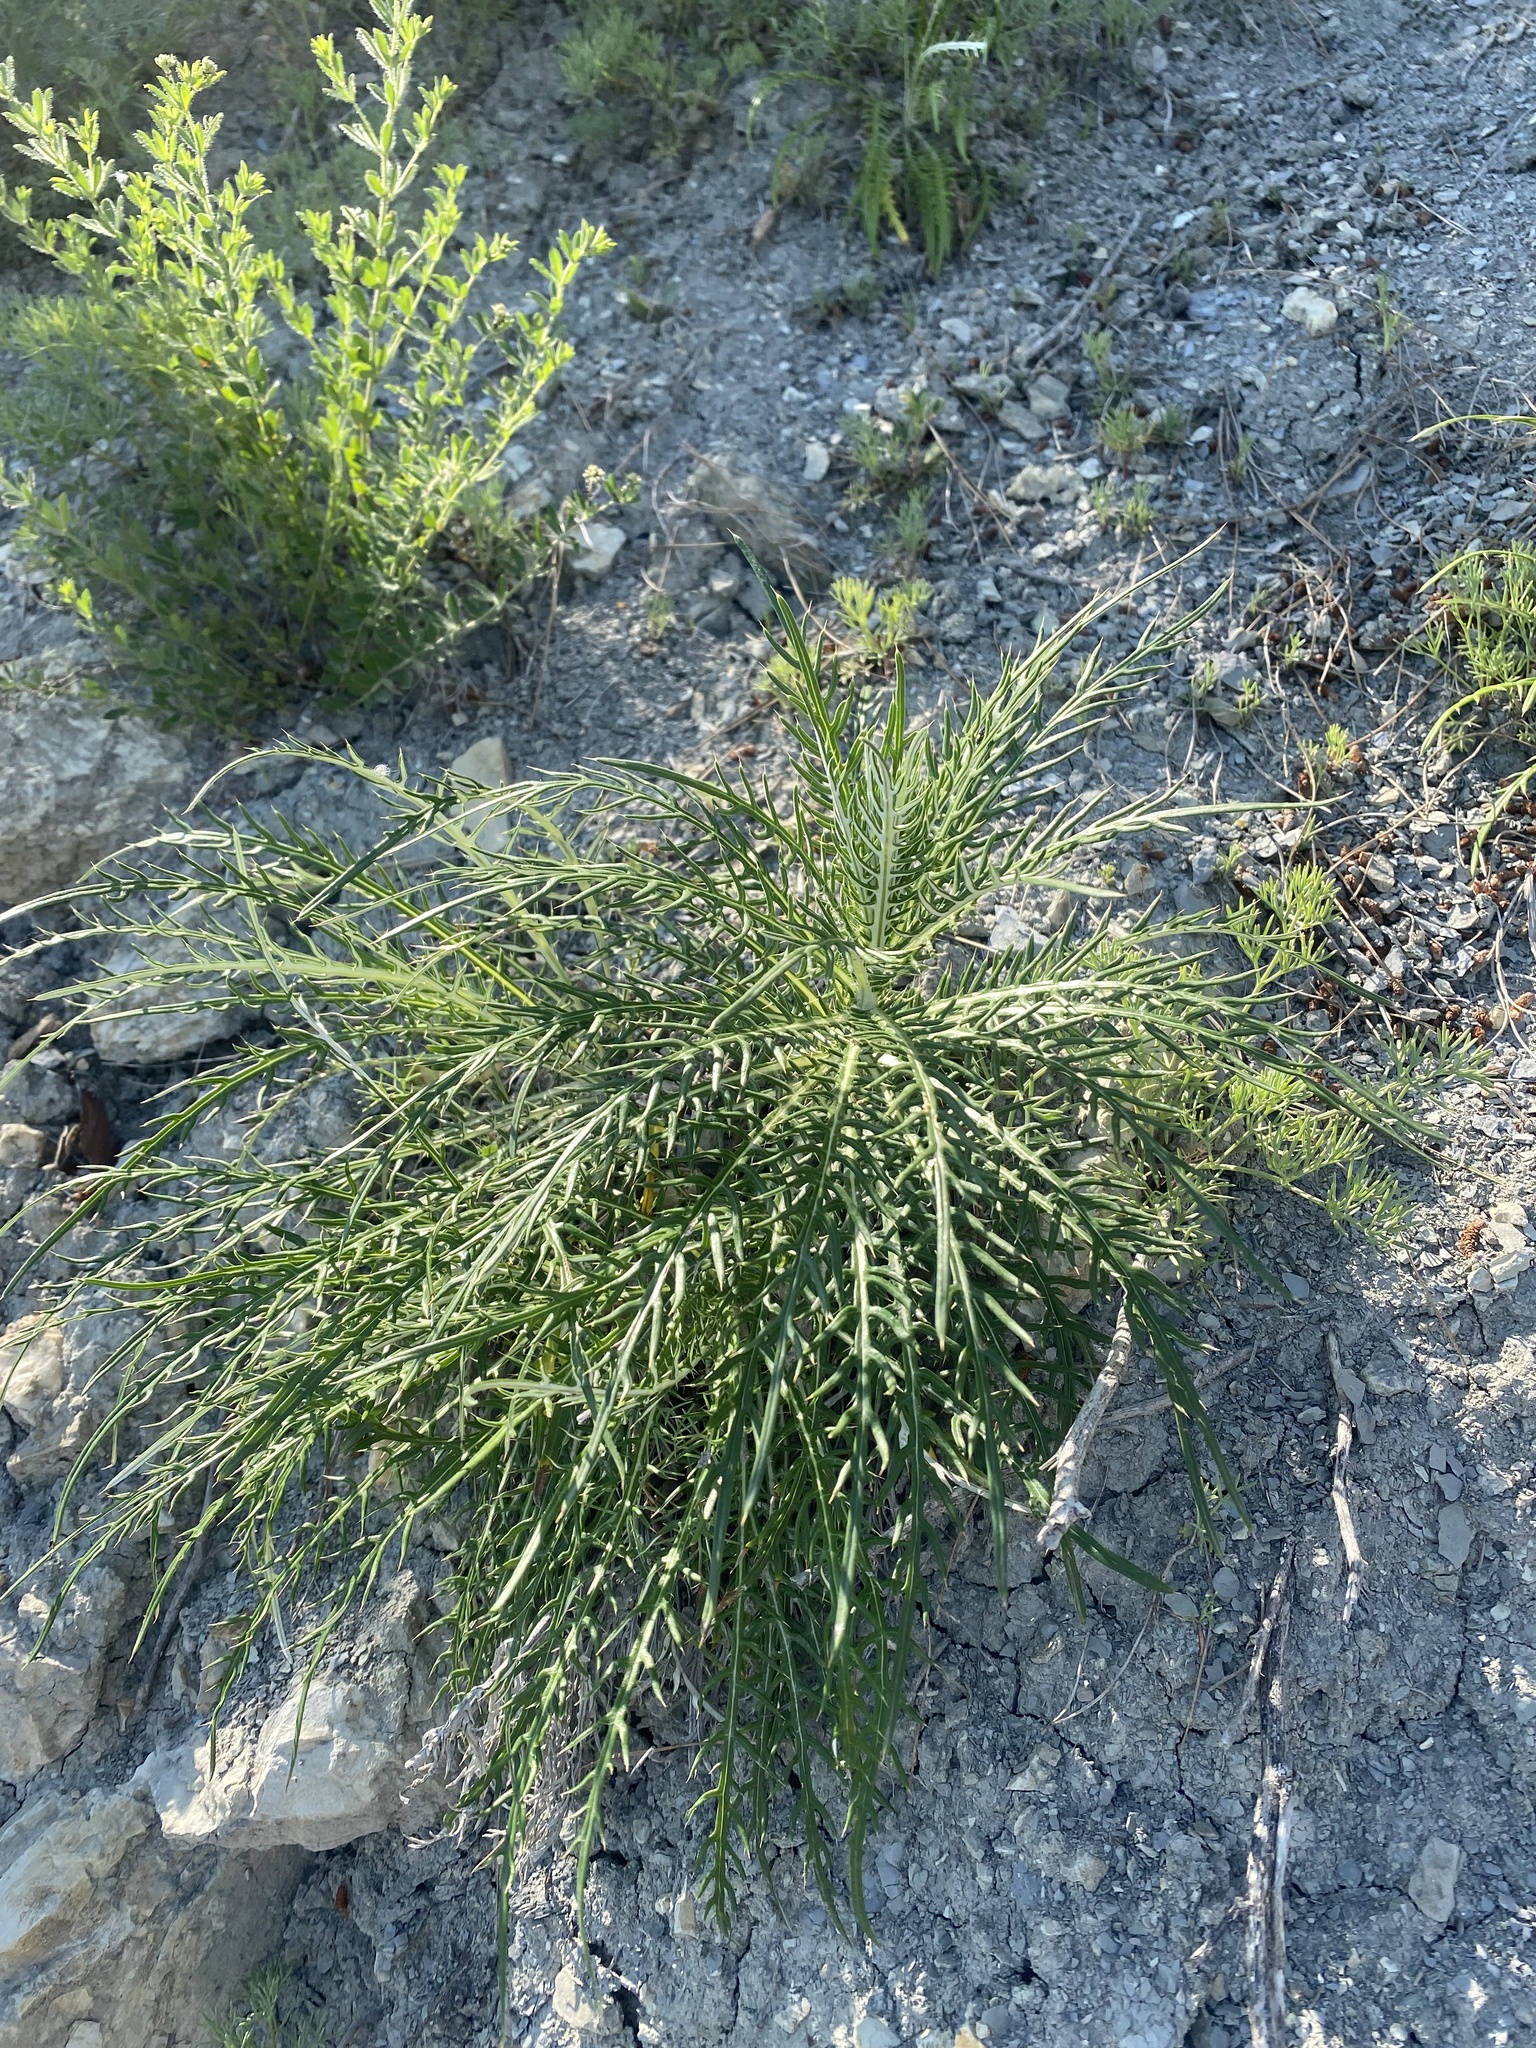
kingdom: Plantae
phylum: Tracheophyta
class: Magnoliopsida
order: Asterales
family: Asteraceae
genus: Ptilostemon
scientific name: Ptilostemon echinocephalus
